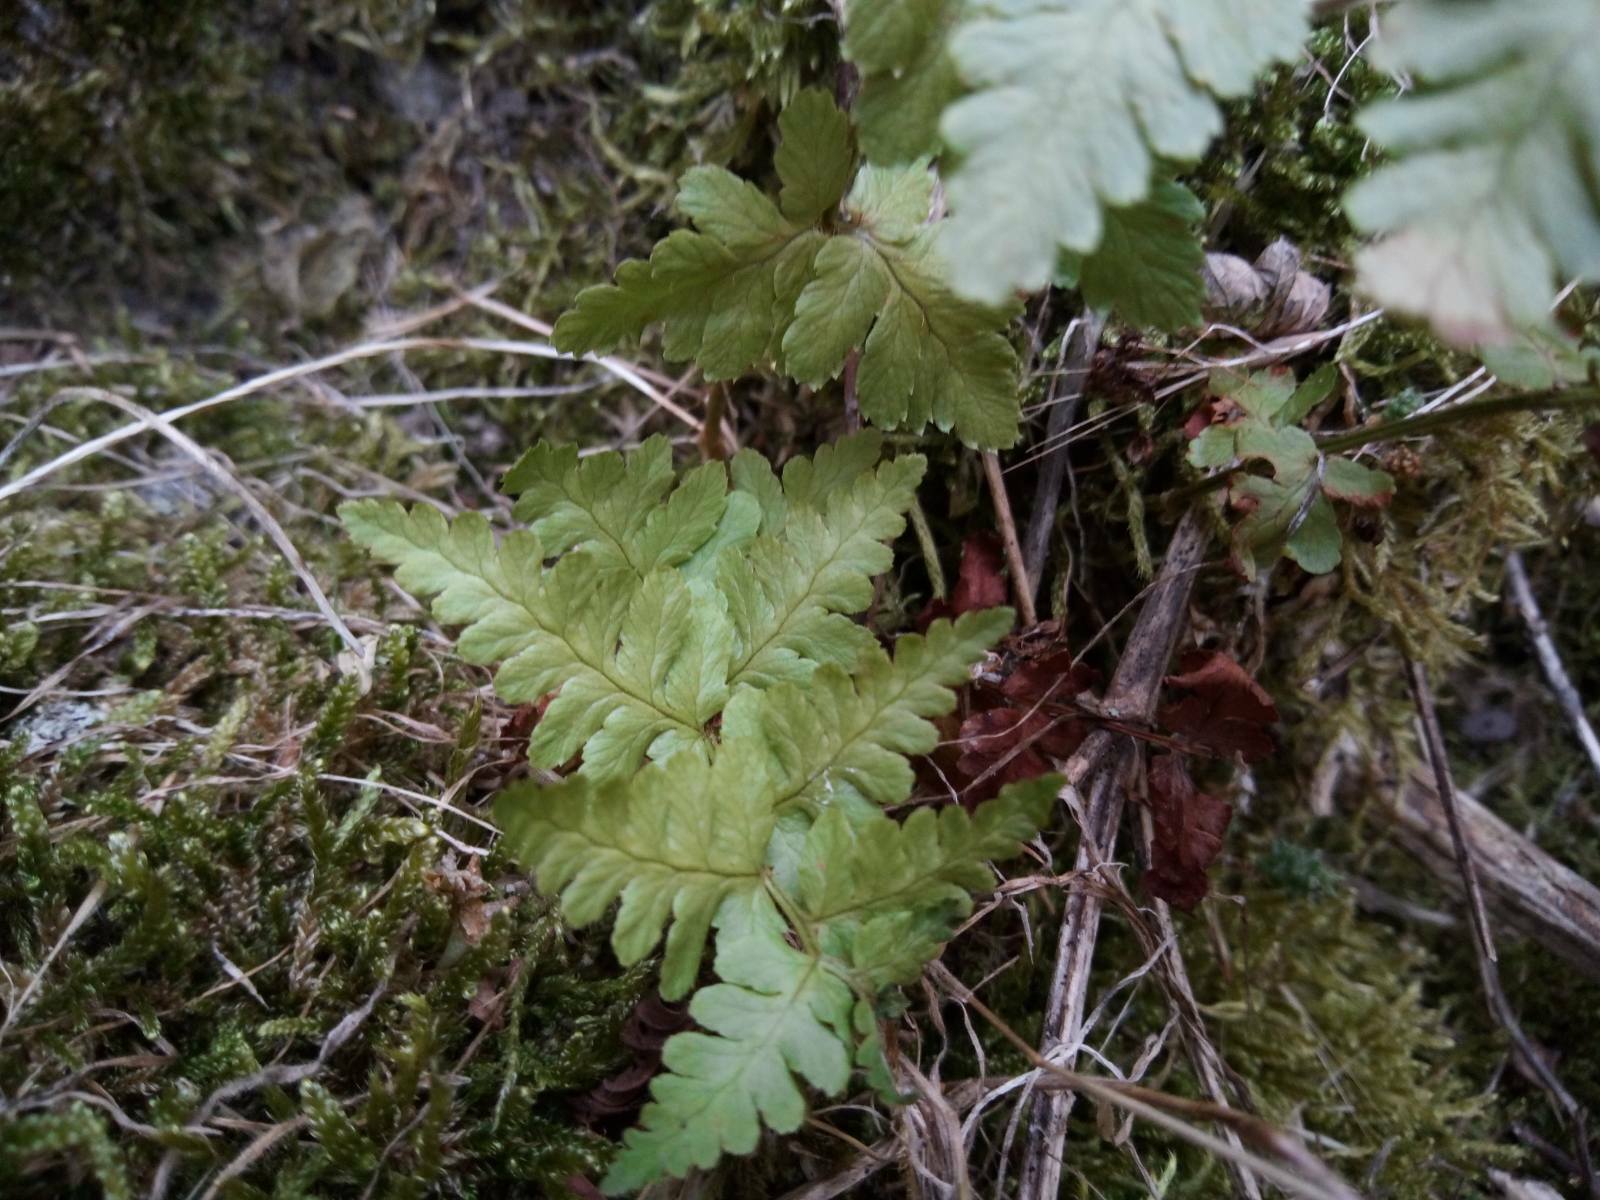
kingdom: Plantae
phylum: Tracheophyta
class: Polypodiopsida
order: Polypodiales
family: Dryopteridaceae
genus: Dryopteris
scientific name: Dryopteris filix-mas
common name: Male fern
